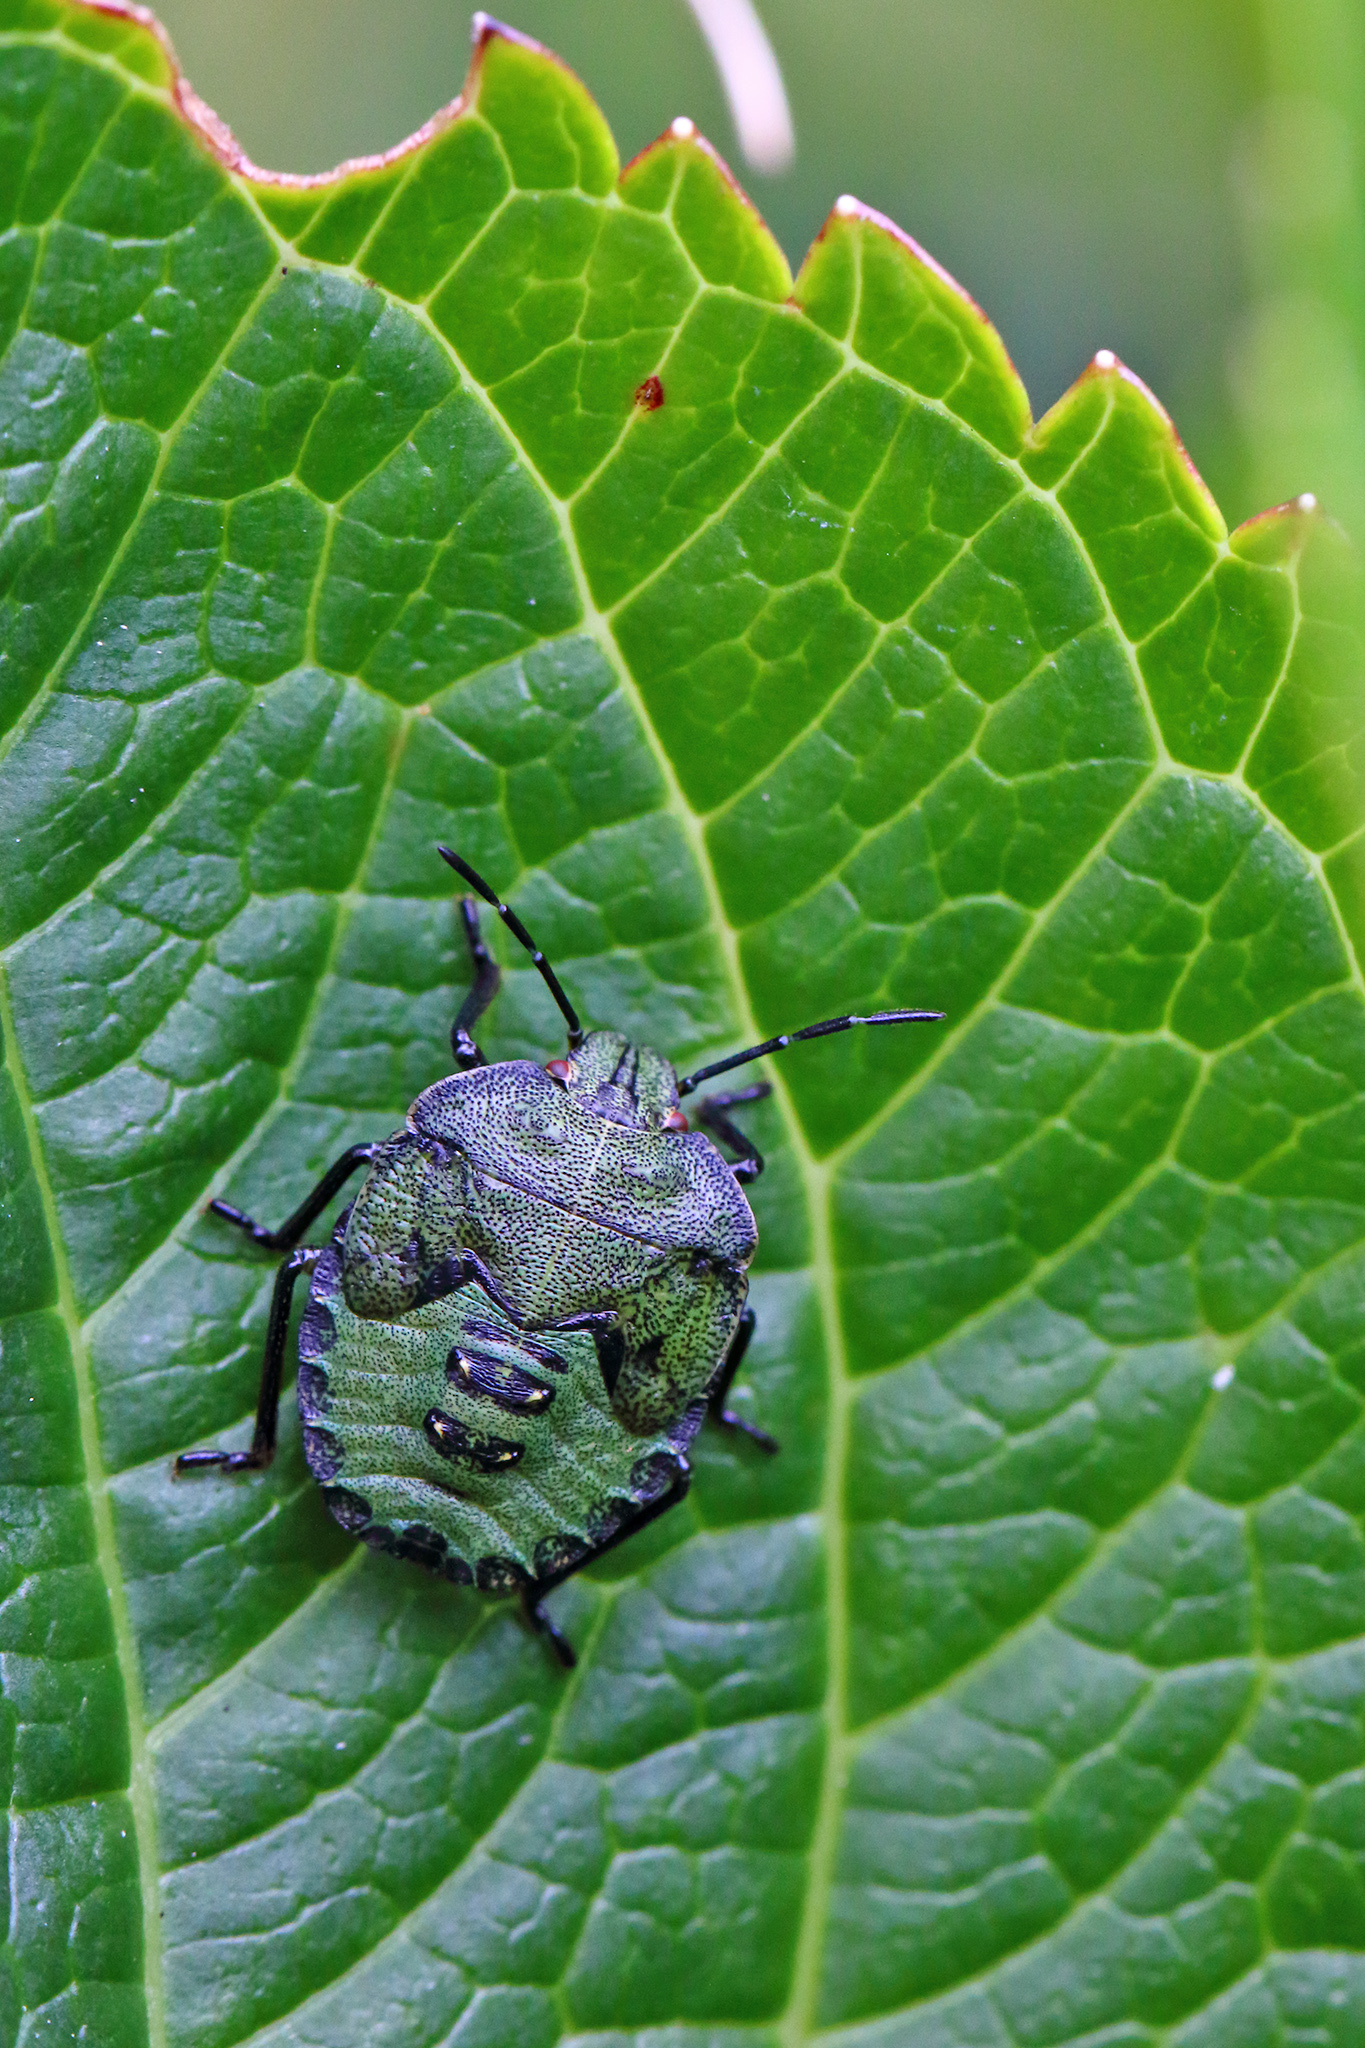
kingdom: Animalia
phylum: Arthropoda
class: Insecta
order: Hemiptera
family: Pentatomidae
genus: Palomena
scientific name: Palomena prasina
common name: Green shieldbug
